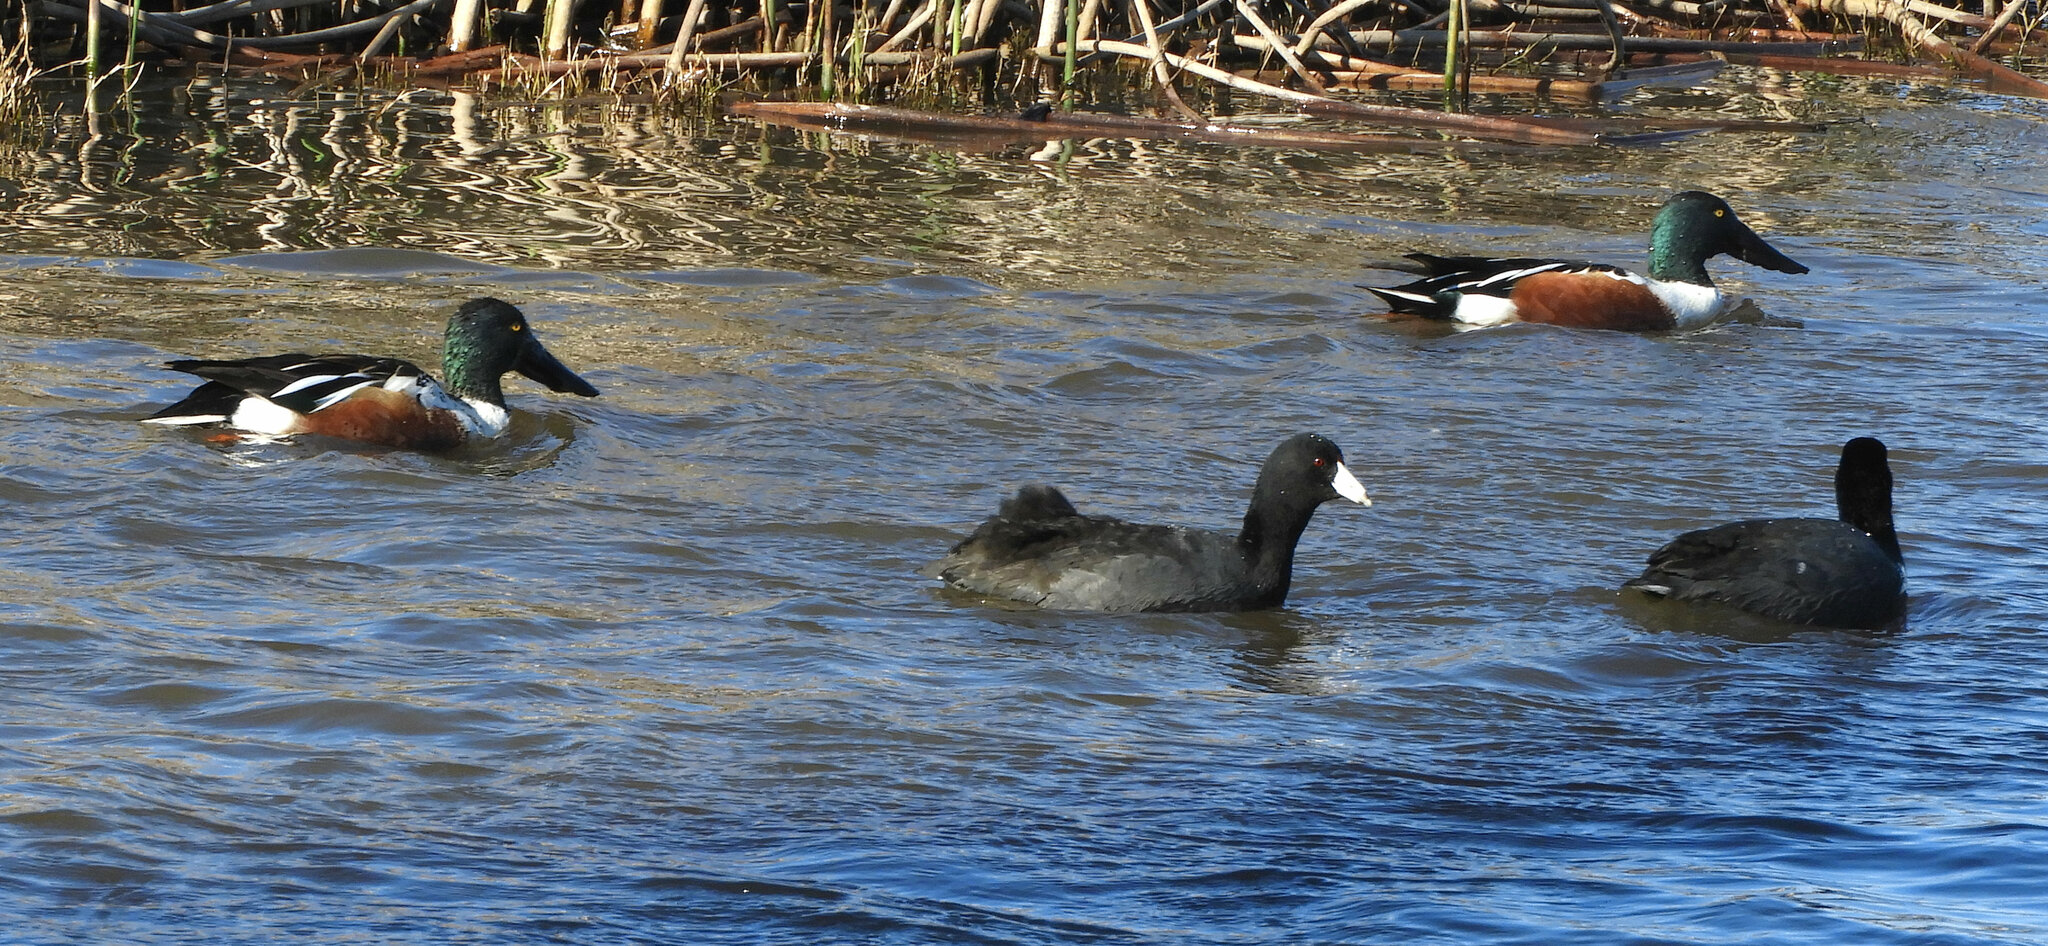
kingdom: Animalia
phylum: Chordata
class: Aves
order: Gruiformes
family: Rallidae
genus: Fulica
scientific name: Fulica americana
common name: American coot
